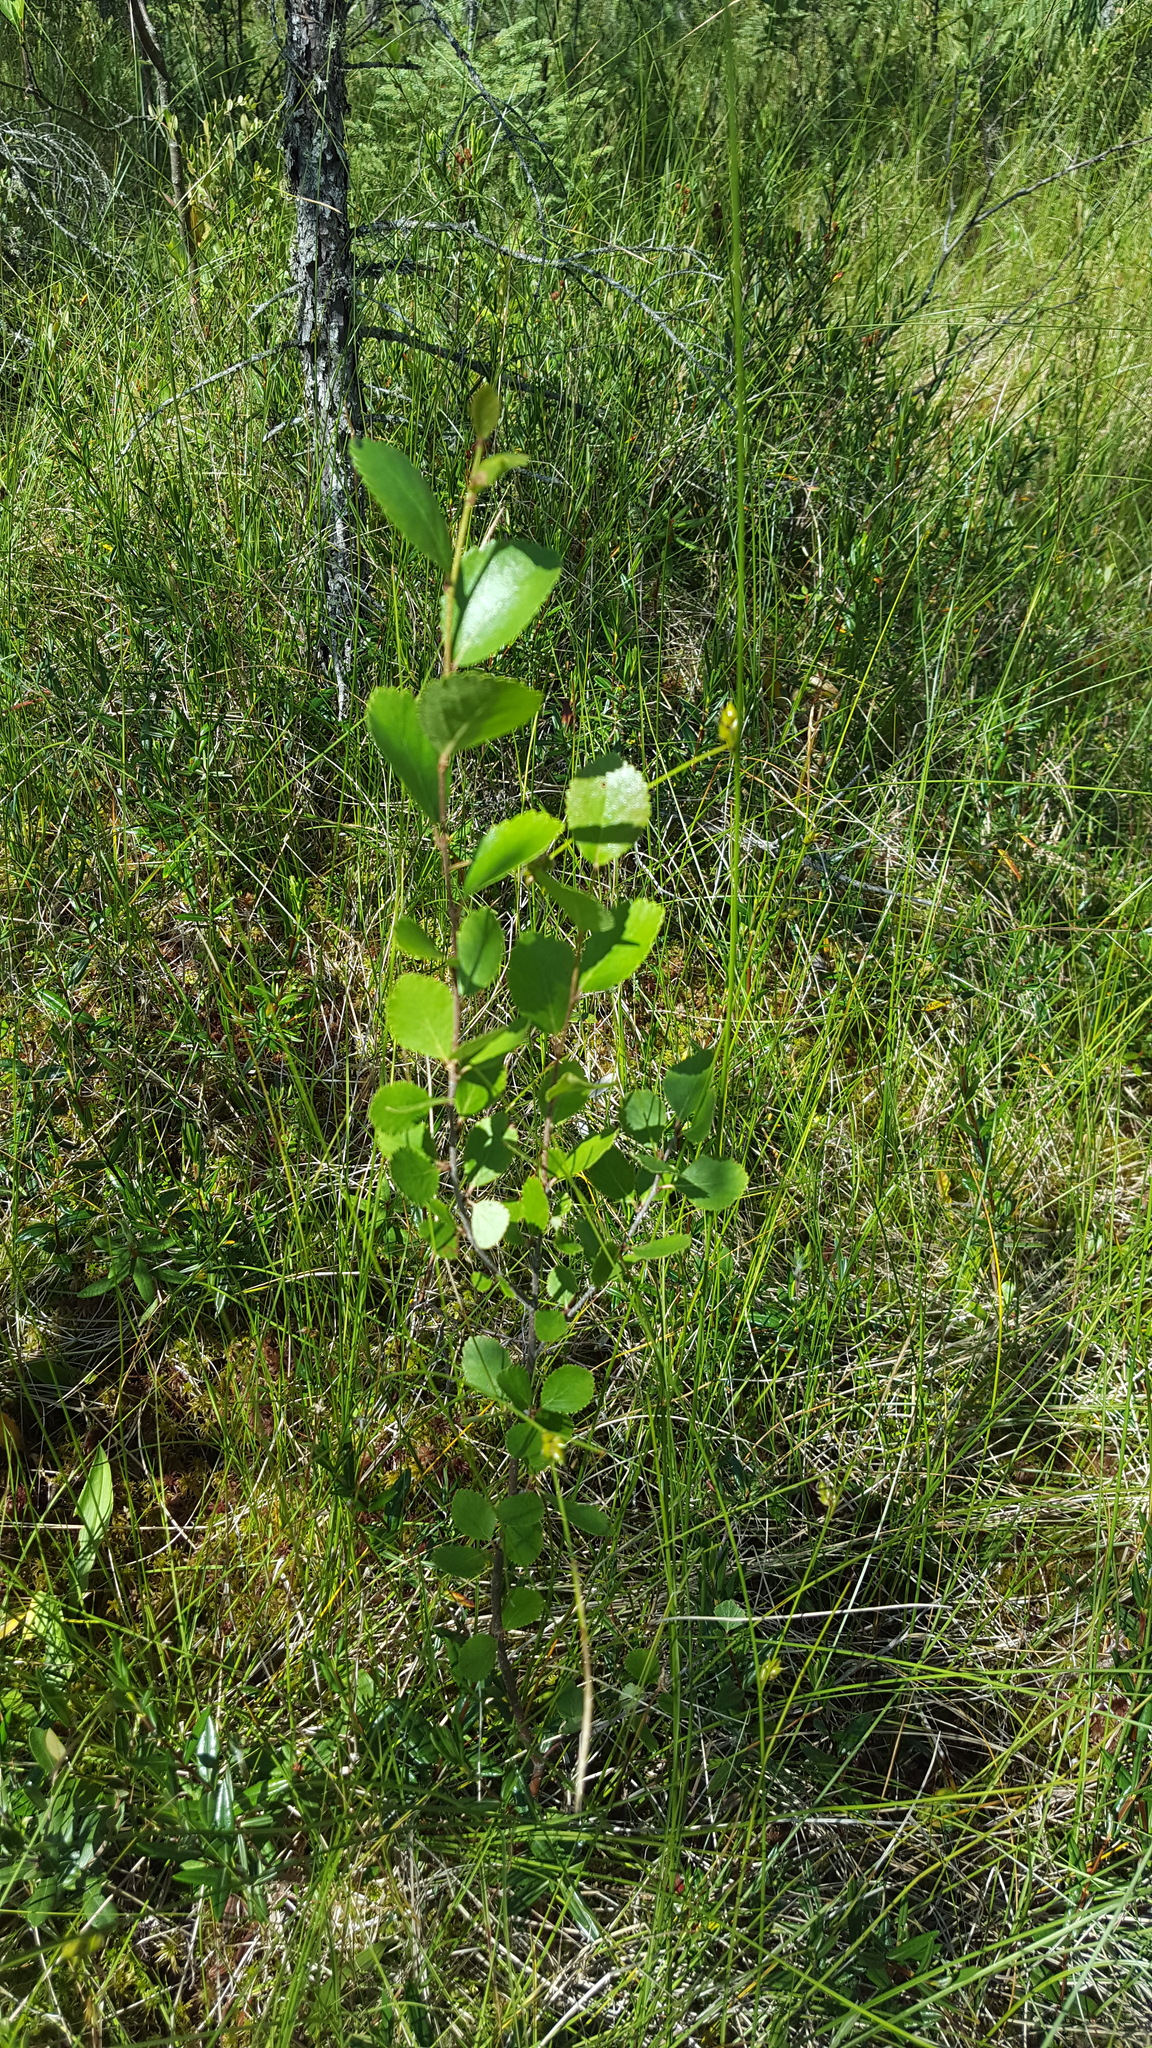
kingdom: Plantae
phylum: Tracheophyta
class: Magnoliopsida
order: Fagales
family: Betulaceae
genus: Betula
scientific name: Betula pumila
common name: Bog birch
